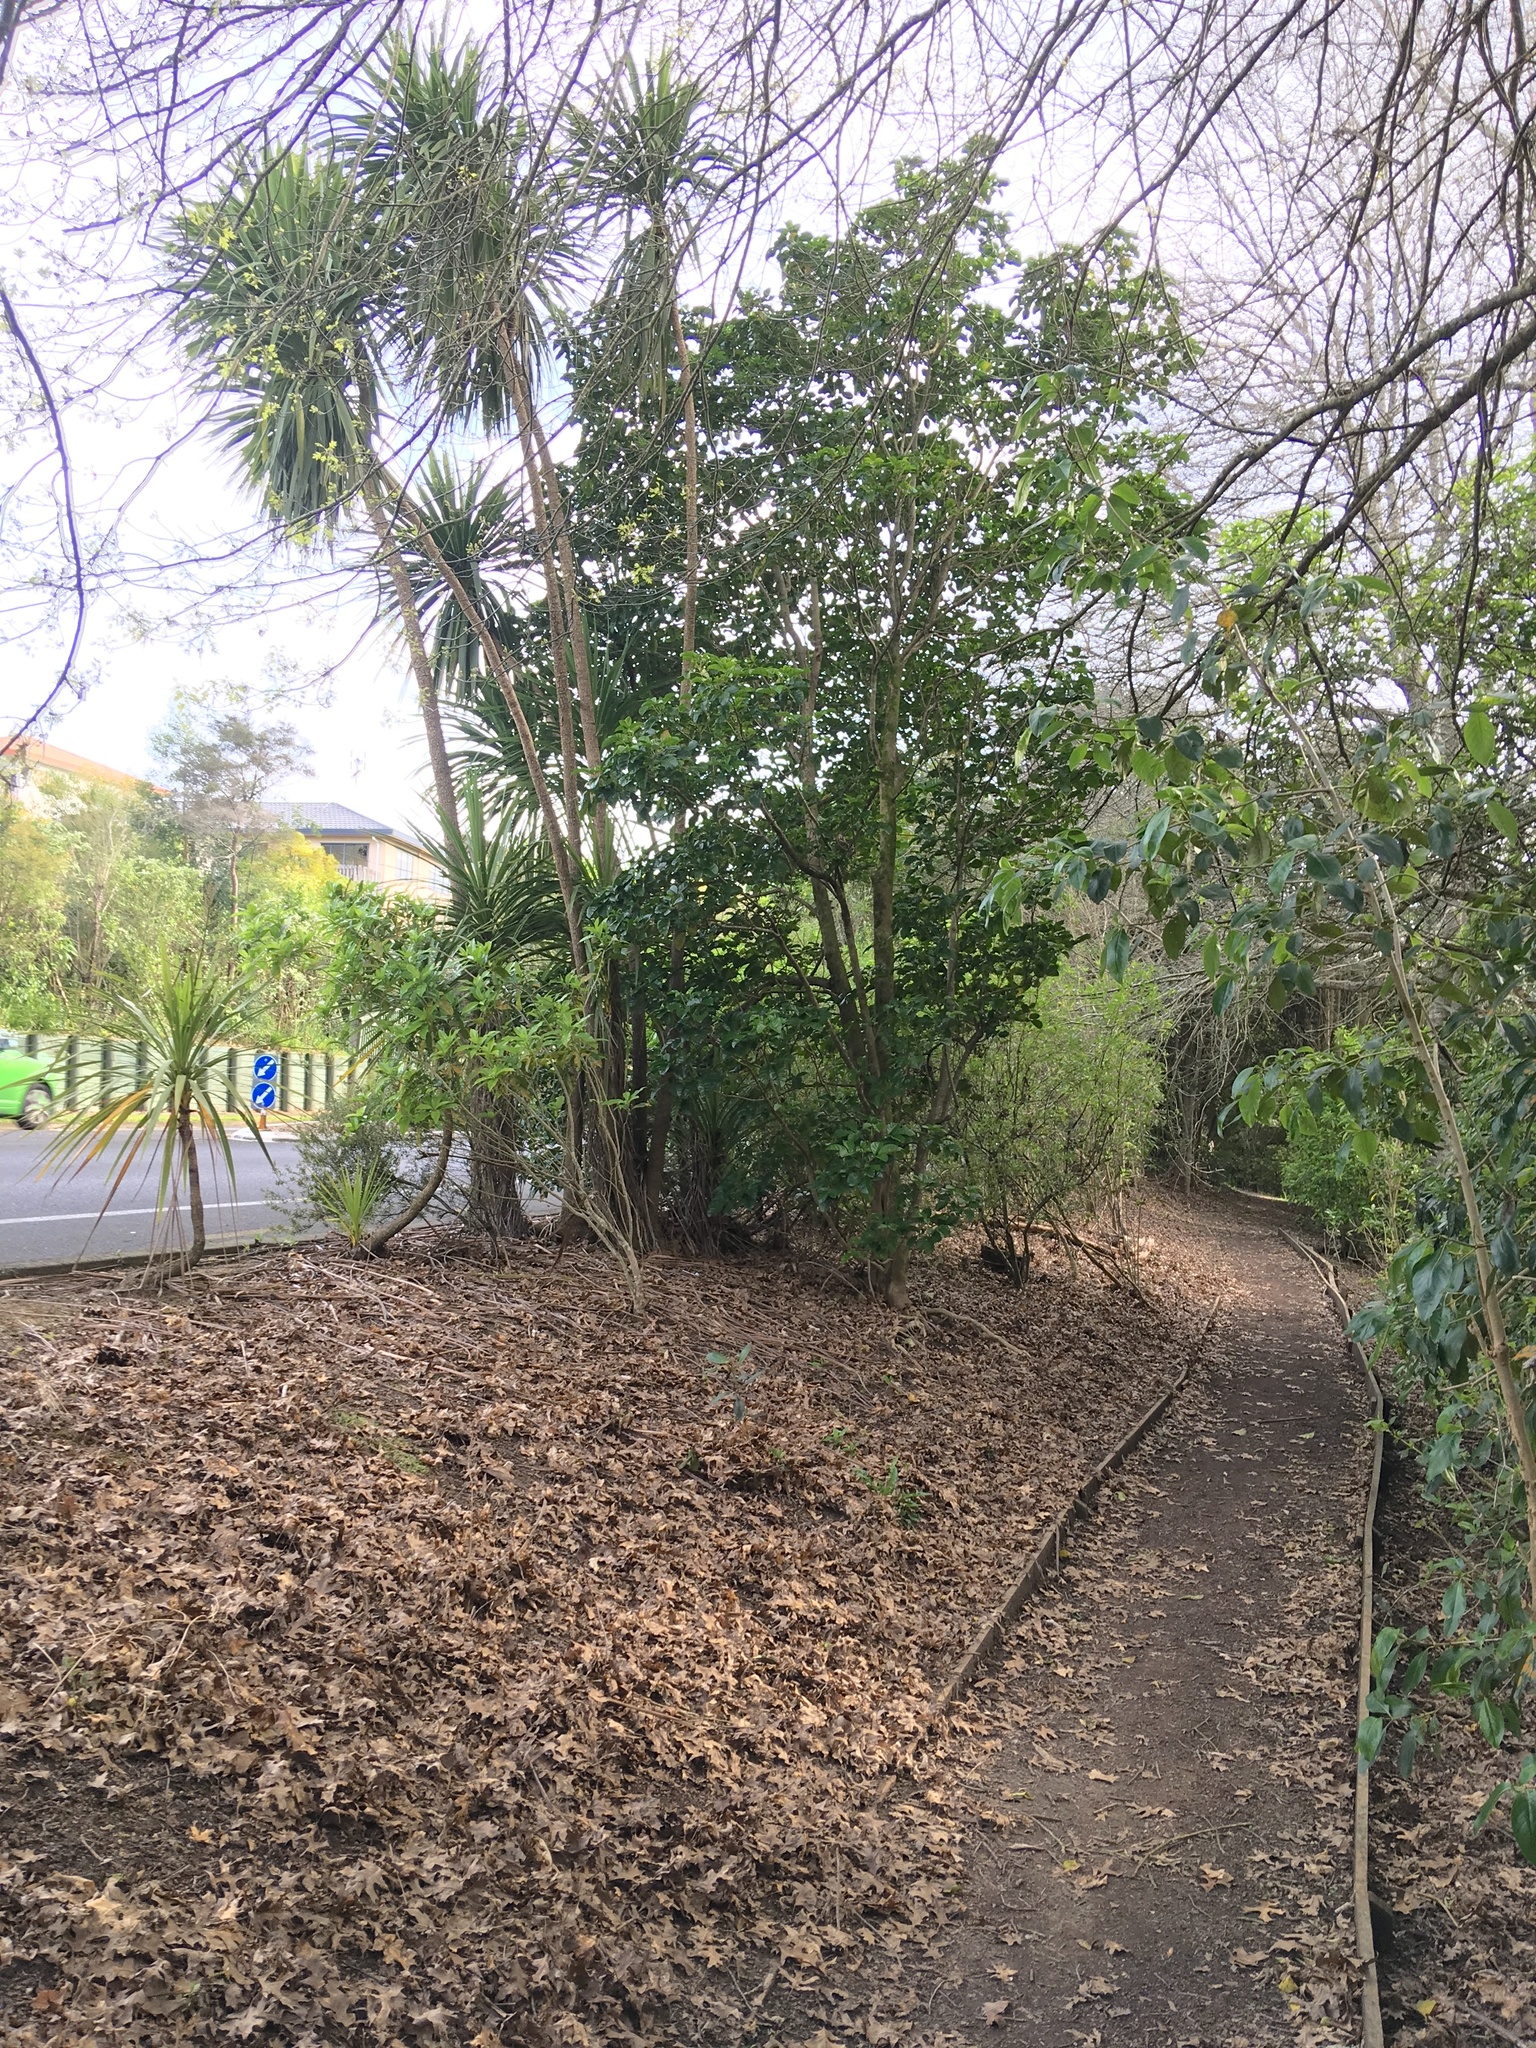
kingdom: Plantae
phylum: Tracheophyta
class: Magnoliopsida
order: Lamiales
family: Lamiaceae
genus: Vitex
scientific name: Vitex lucens
